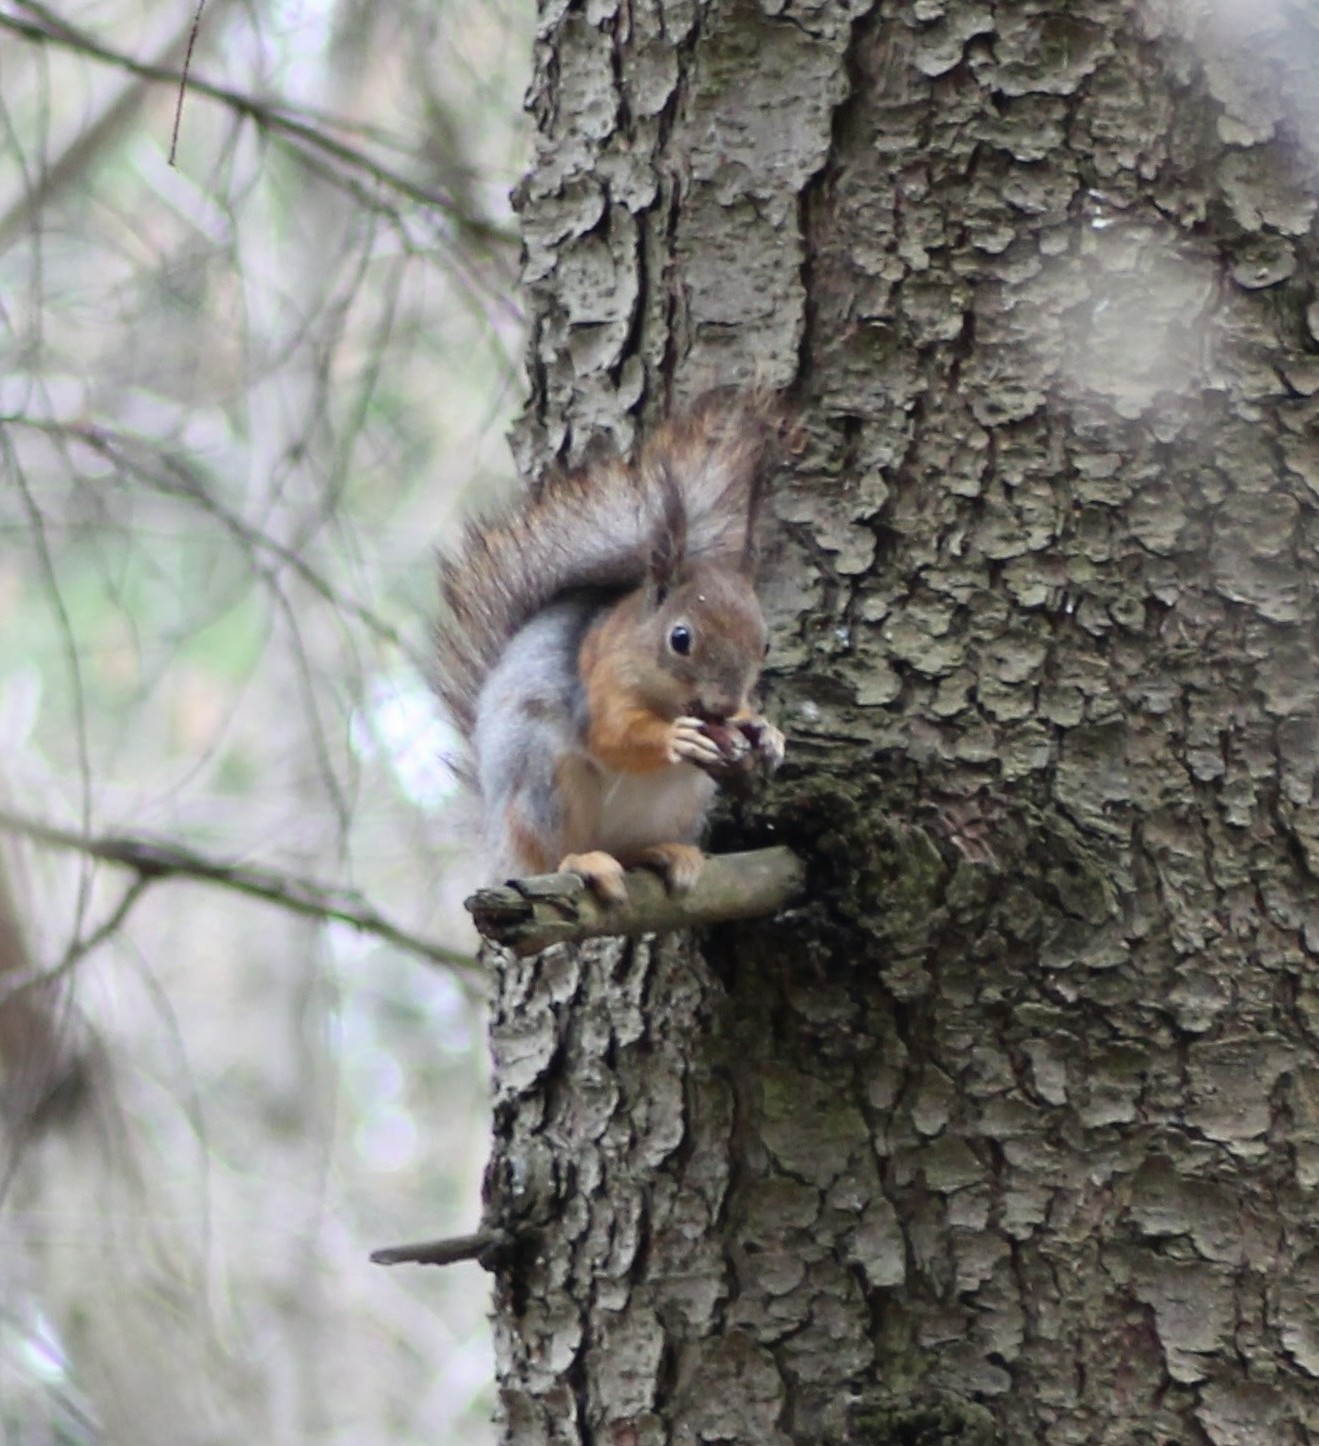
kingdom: Animalia
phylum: Chordata
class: Mammalia
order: Rodentia
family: Sciuridae
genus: Sciurus
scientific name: Sciurus vulgaris
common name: Eurasian red squirrel
